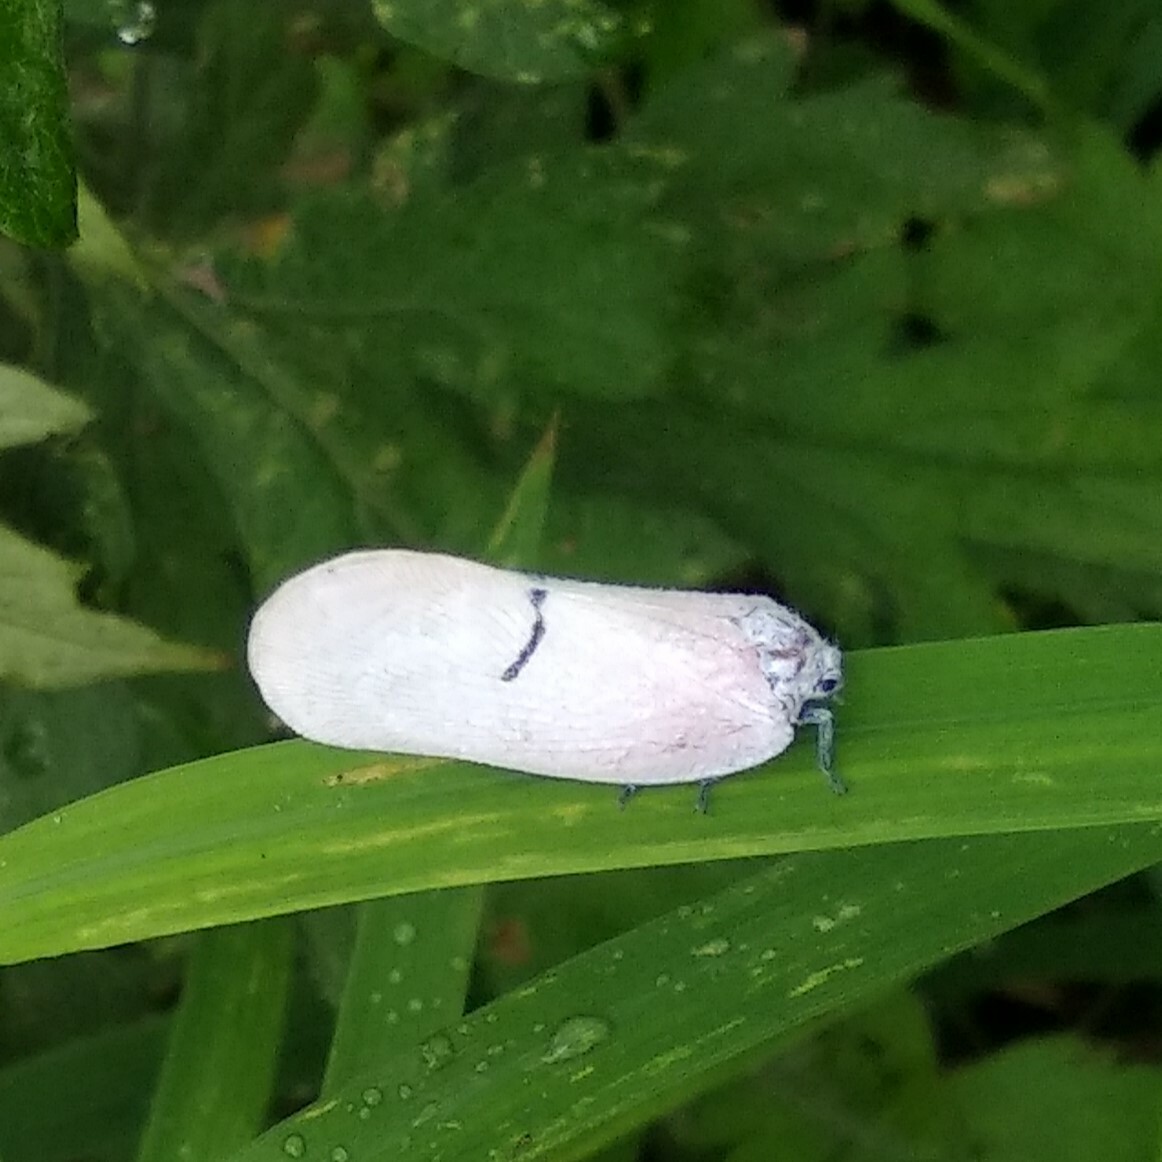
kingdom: Animalia
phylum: Arthropoda
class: Insecta
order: Hemiptera
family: Flatidae
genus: Cerynia
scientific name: Cerynia lineola
